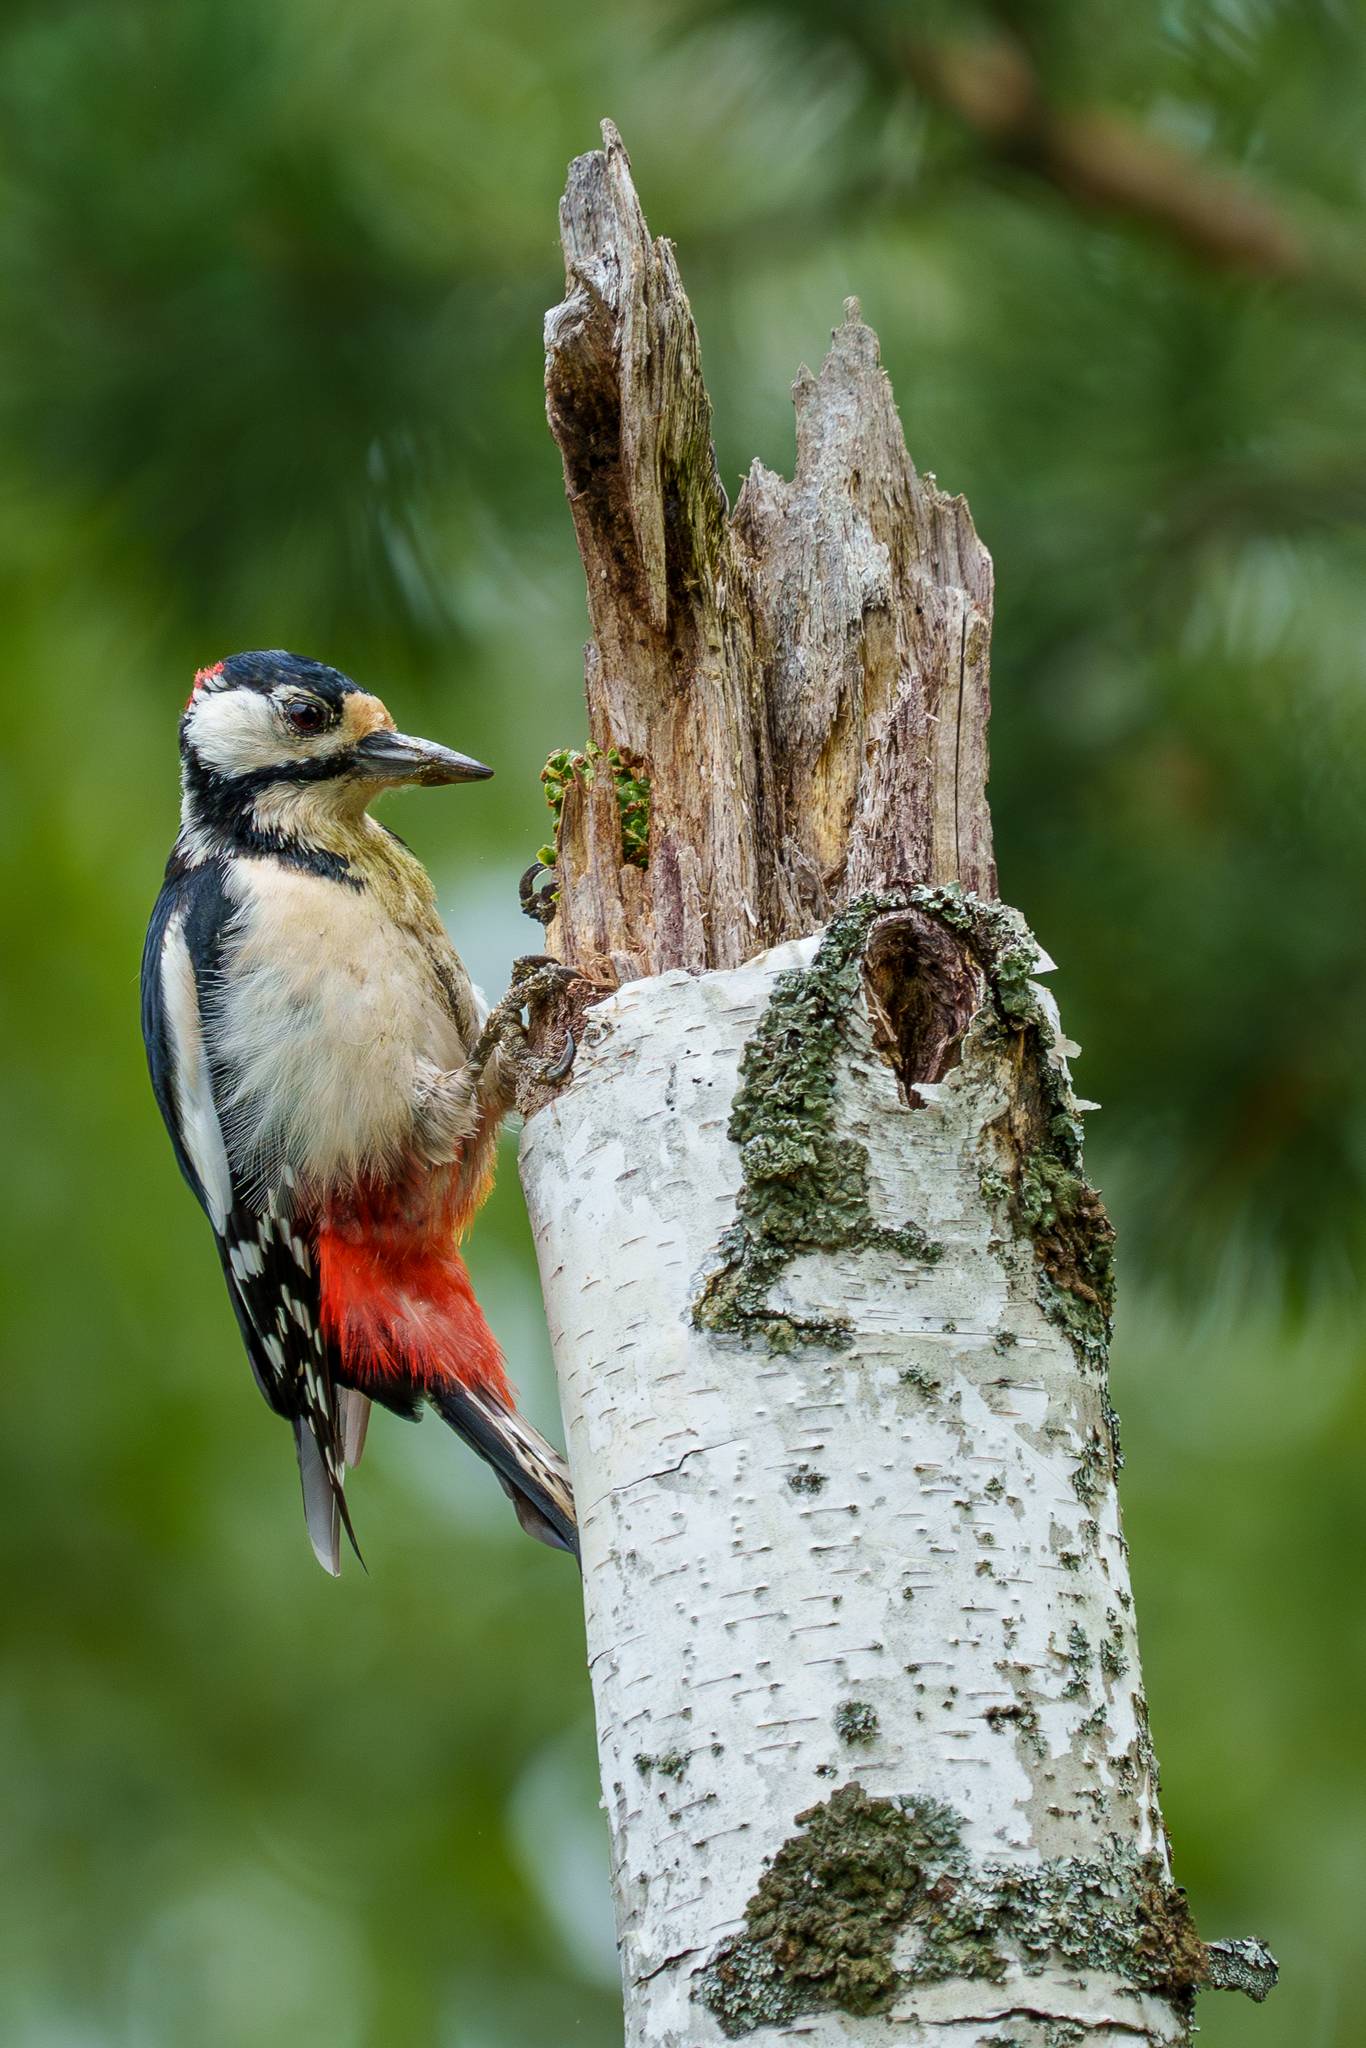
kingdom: Animalia
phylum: Chordata
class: Aves
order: Piciformes
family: Picidae
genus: Dendrocopos
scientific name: Dendrocopos major
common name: Great spotted woodpecker
